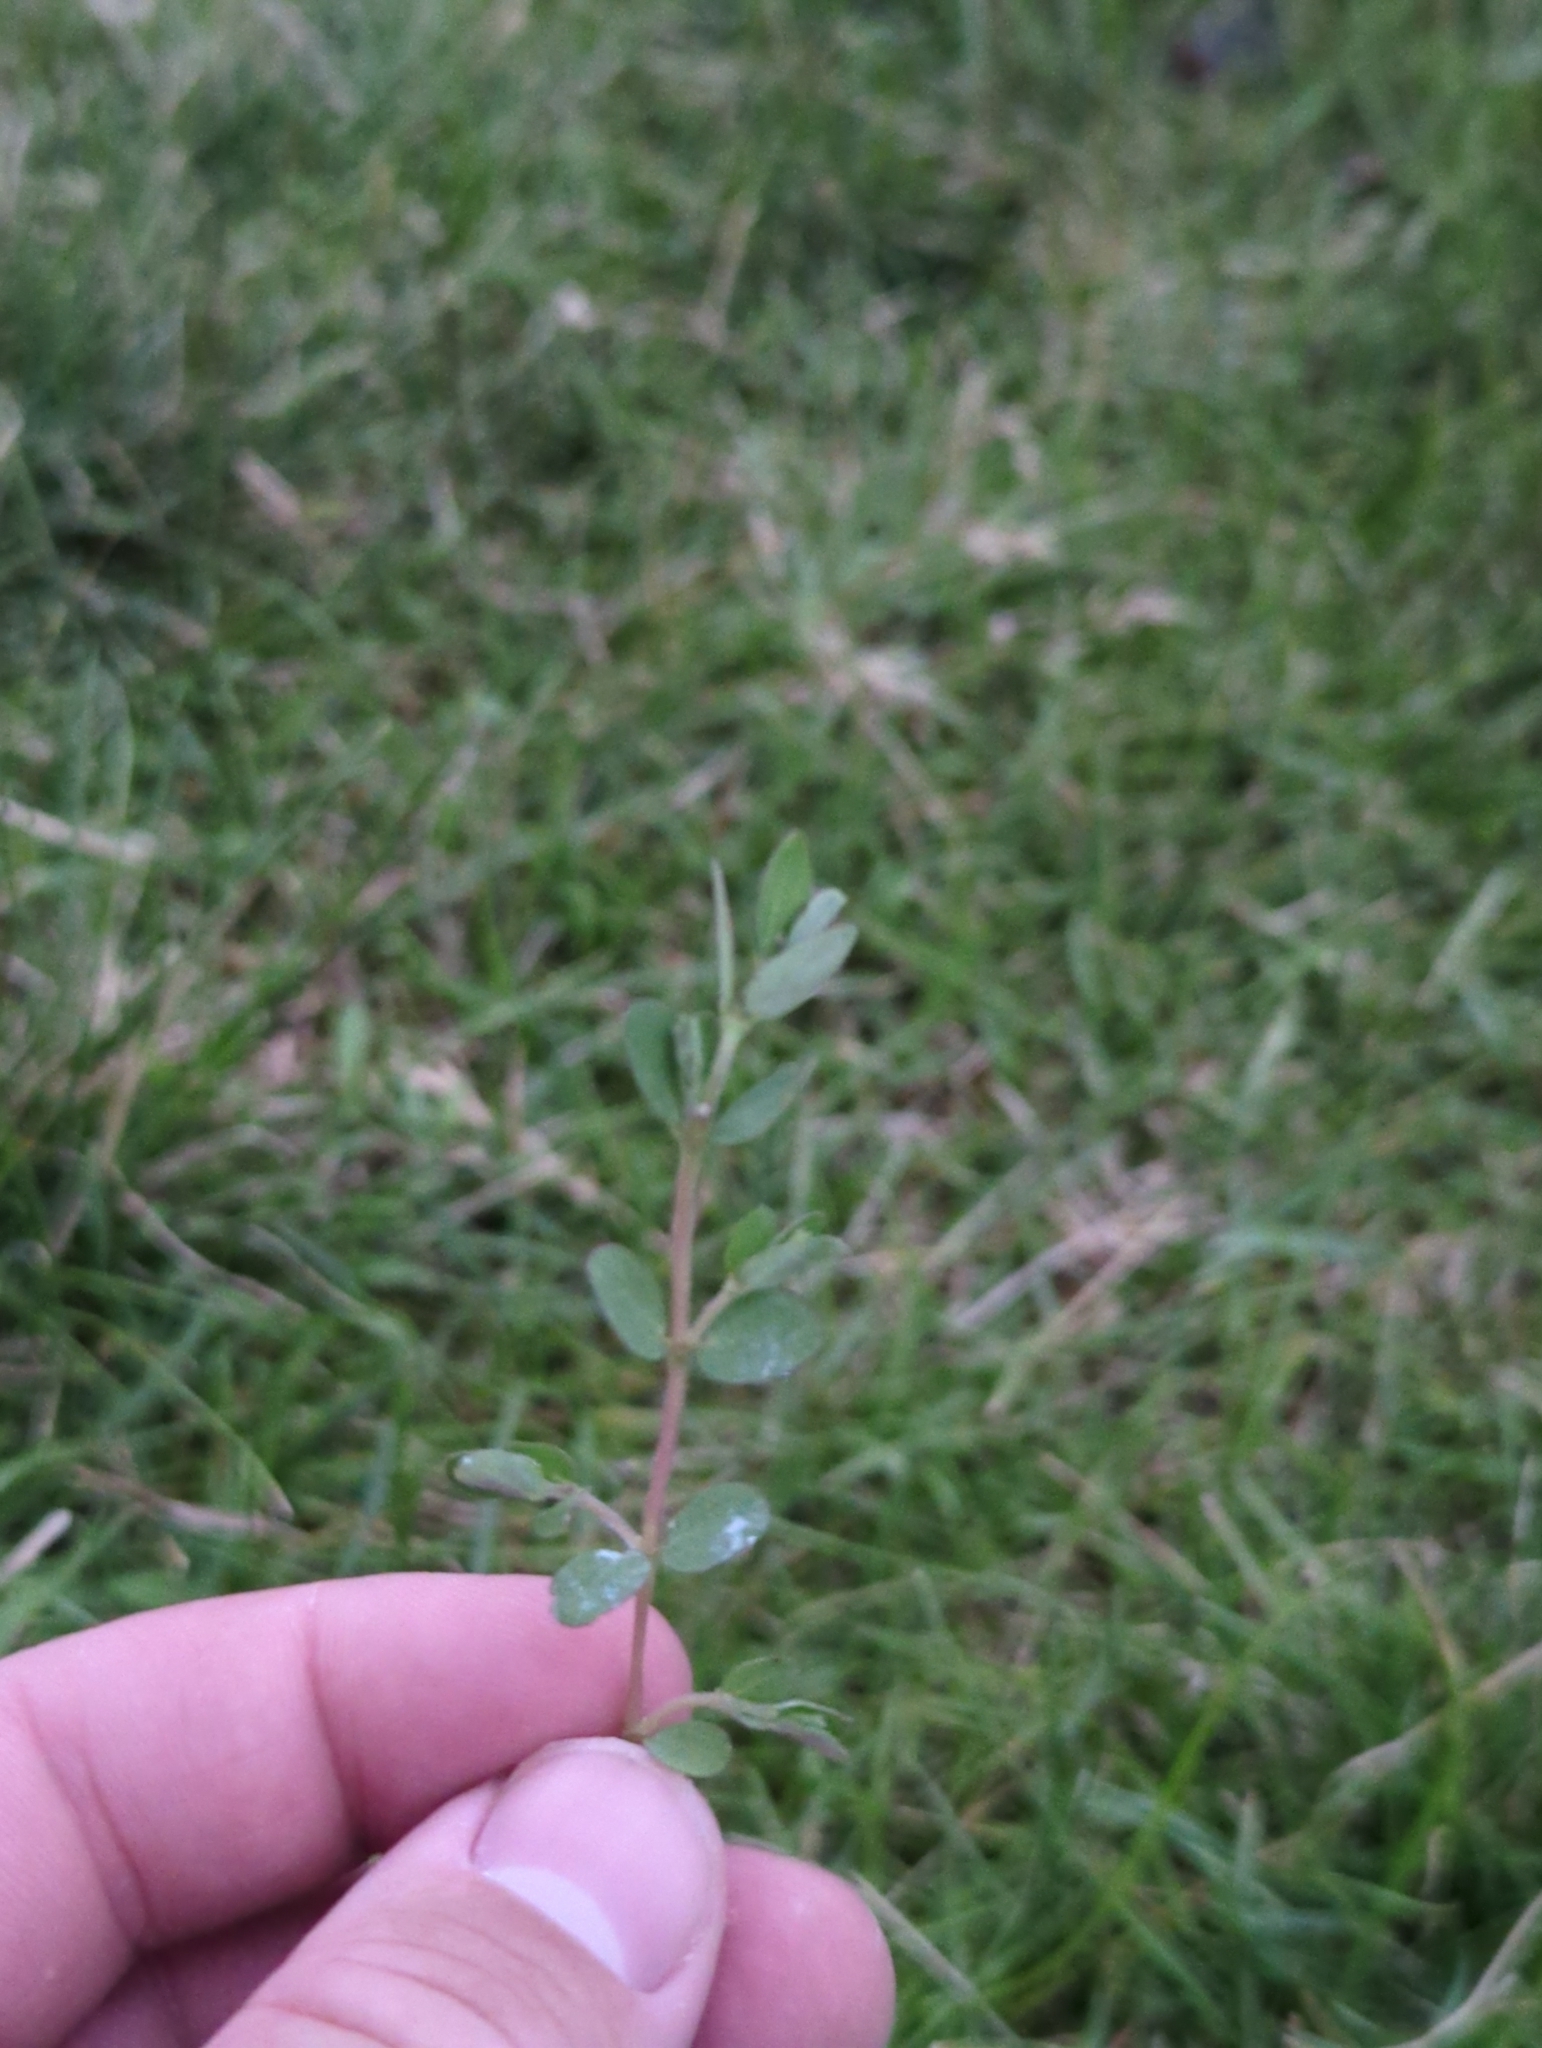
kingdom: Plantae
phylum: Tracheophyta
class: Magnoliopsida
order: Malpighiales
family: Euphorbiaceae
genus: Euphorbia
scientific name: Euphorbia maculata
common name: Spotted spurge
